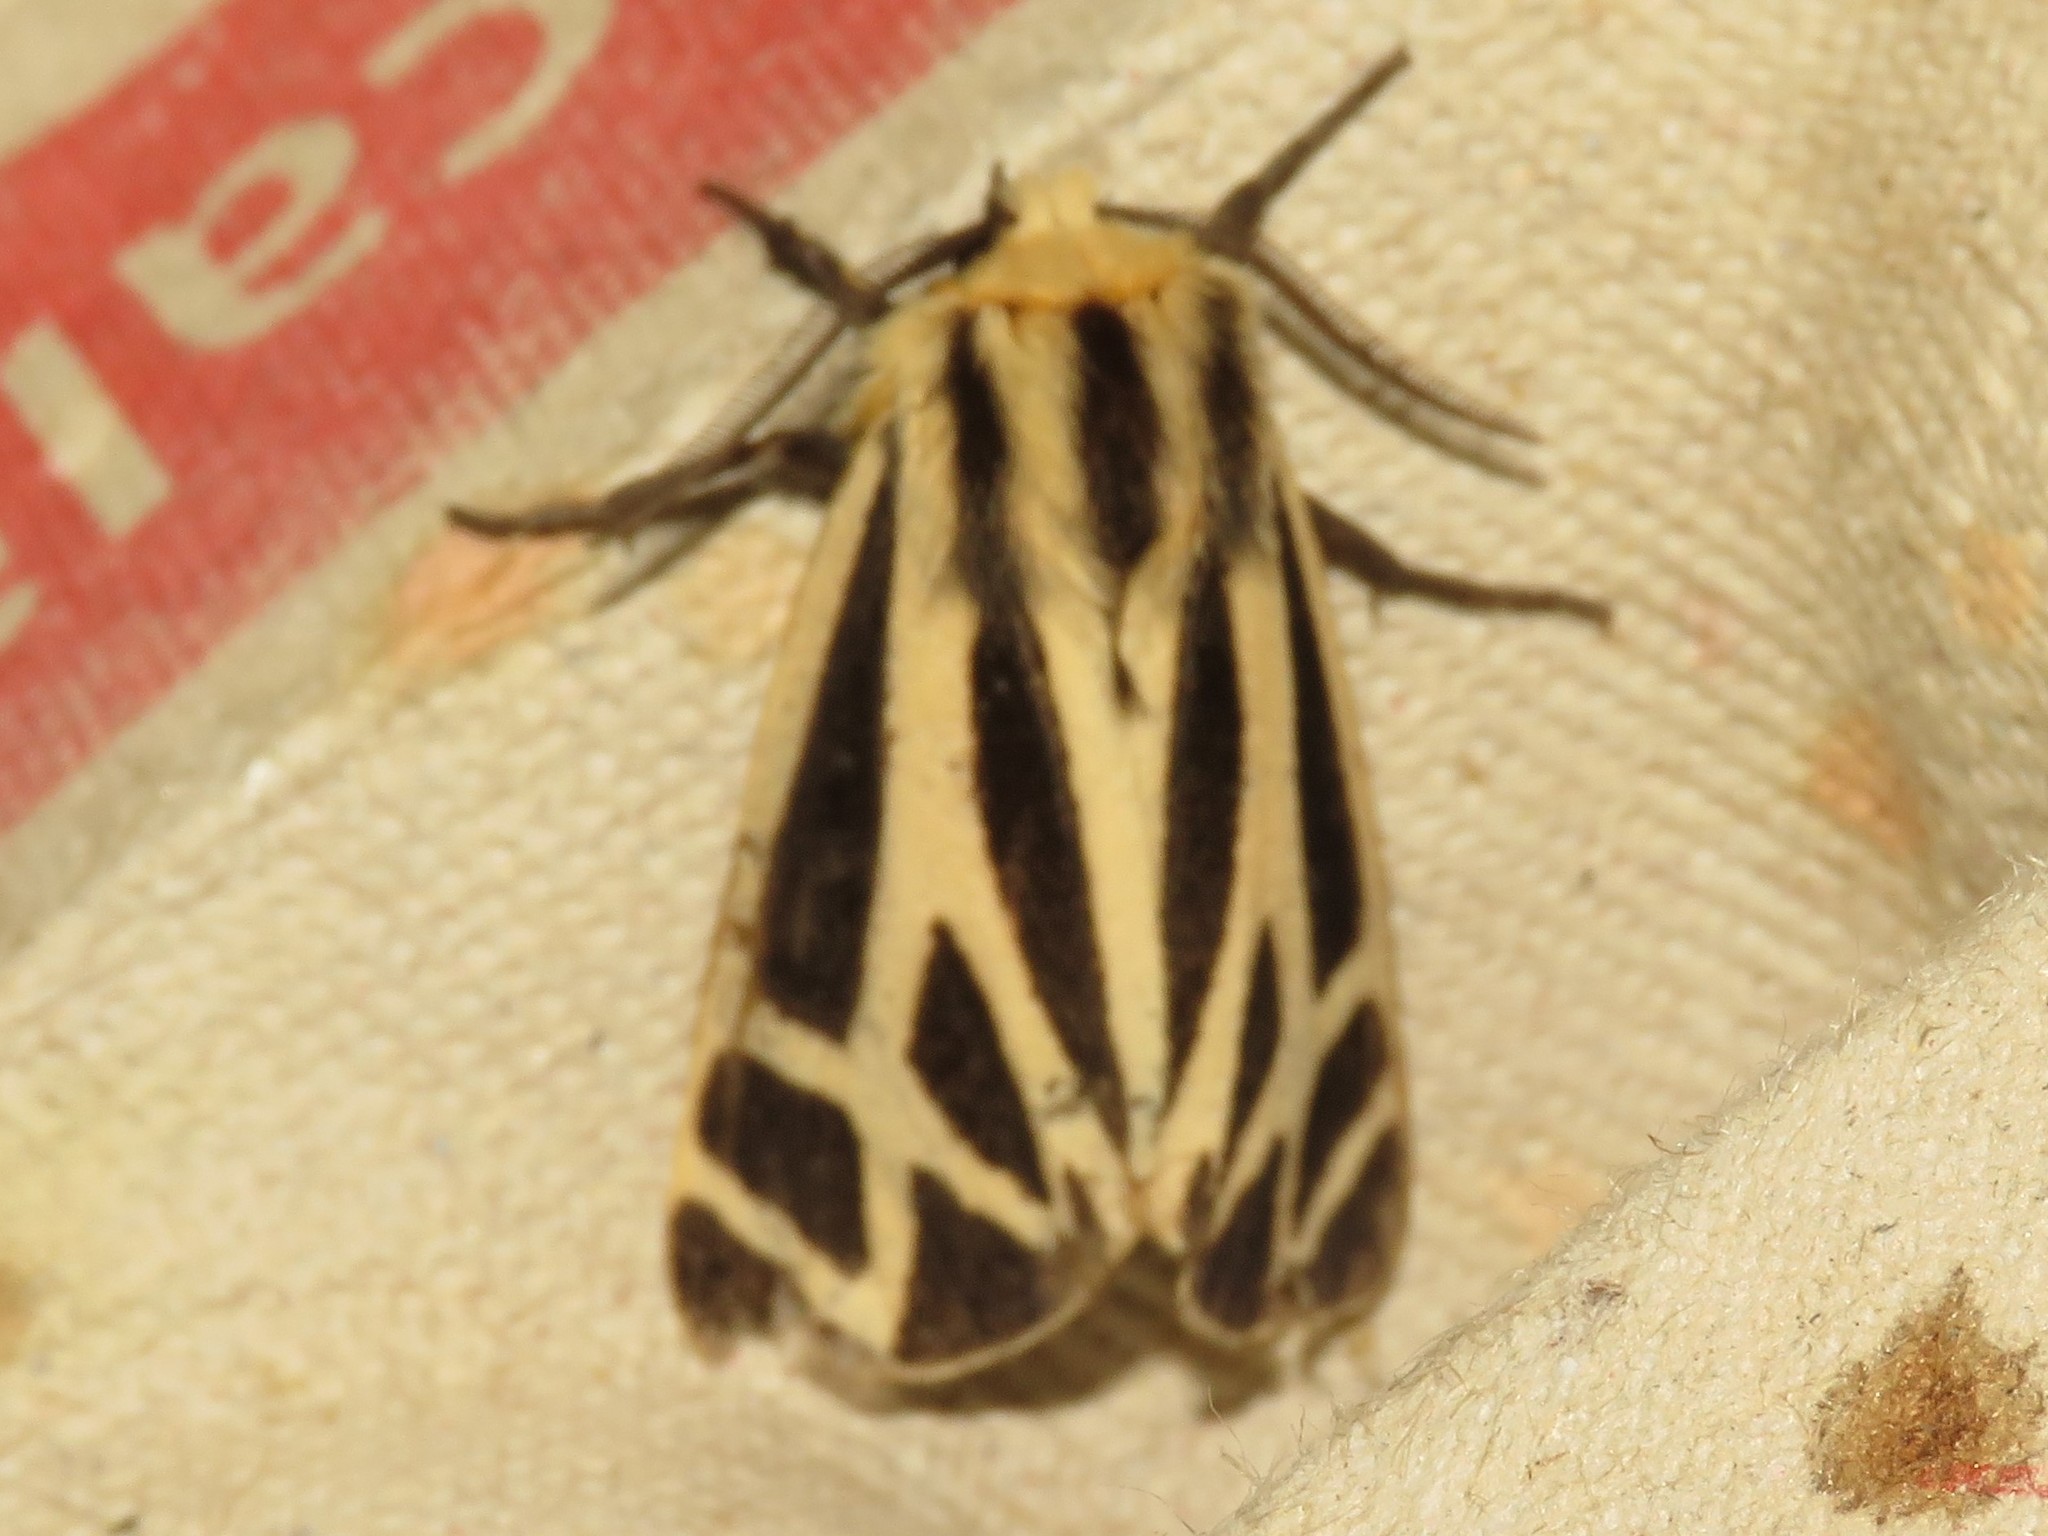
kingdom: Animalia
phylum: Arthropoda
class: Insecta
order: Lepidoptera
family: Erebidae
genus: Apantesis
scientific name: Apantesis nais
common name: Nais tiger moth
